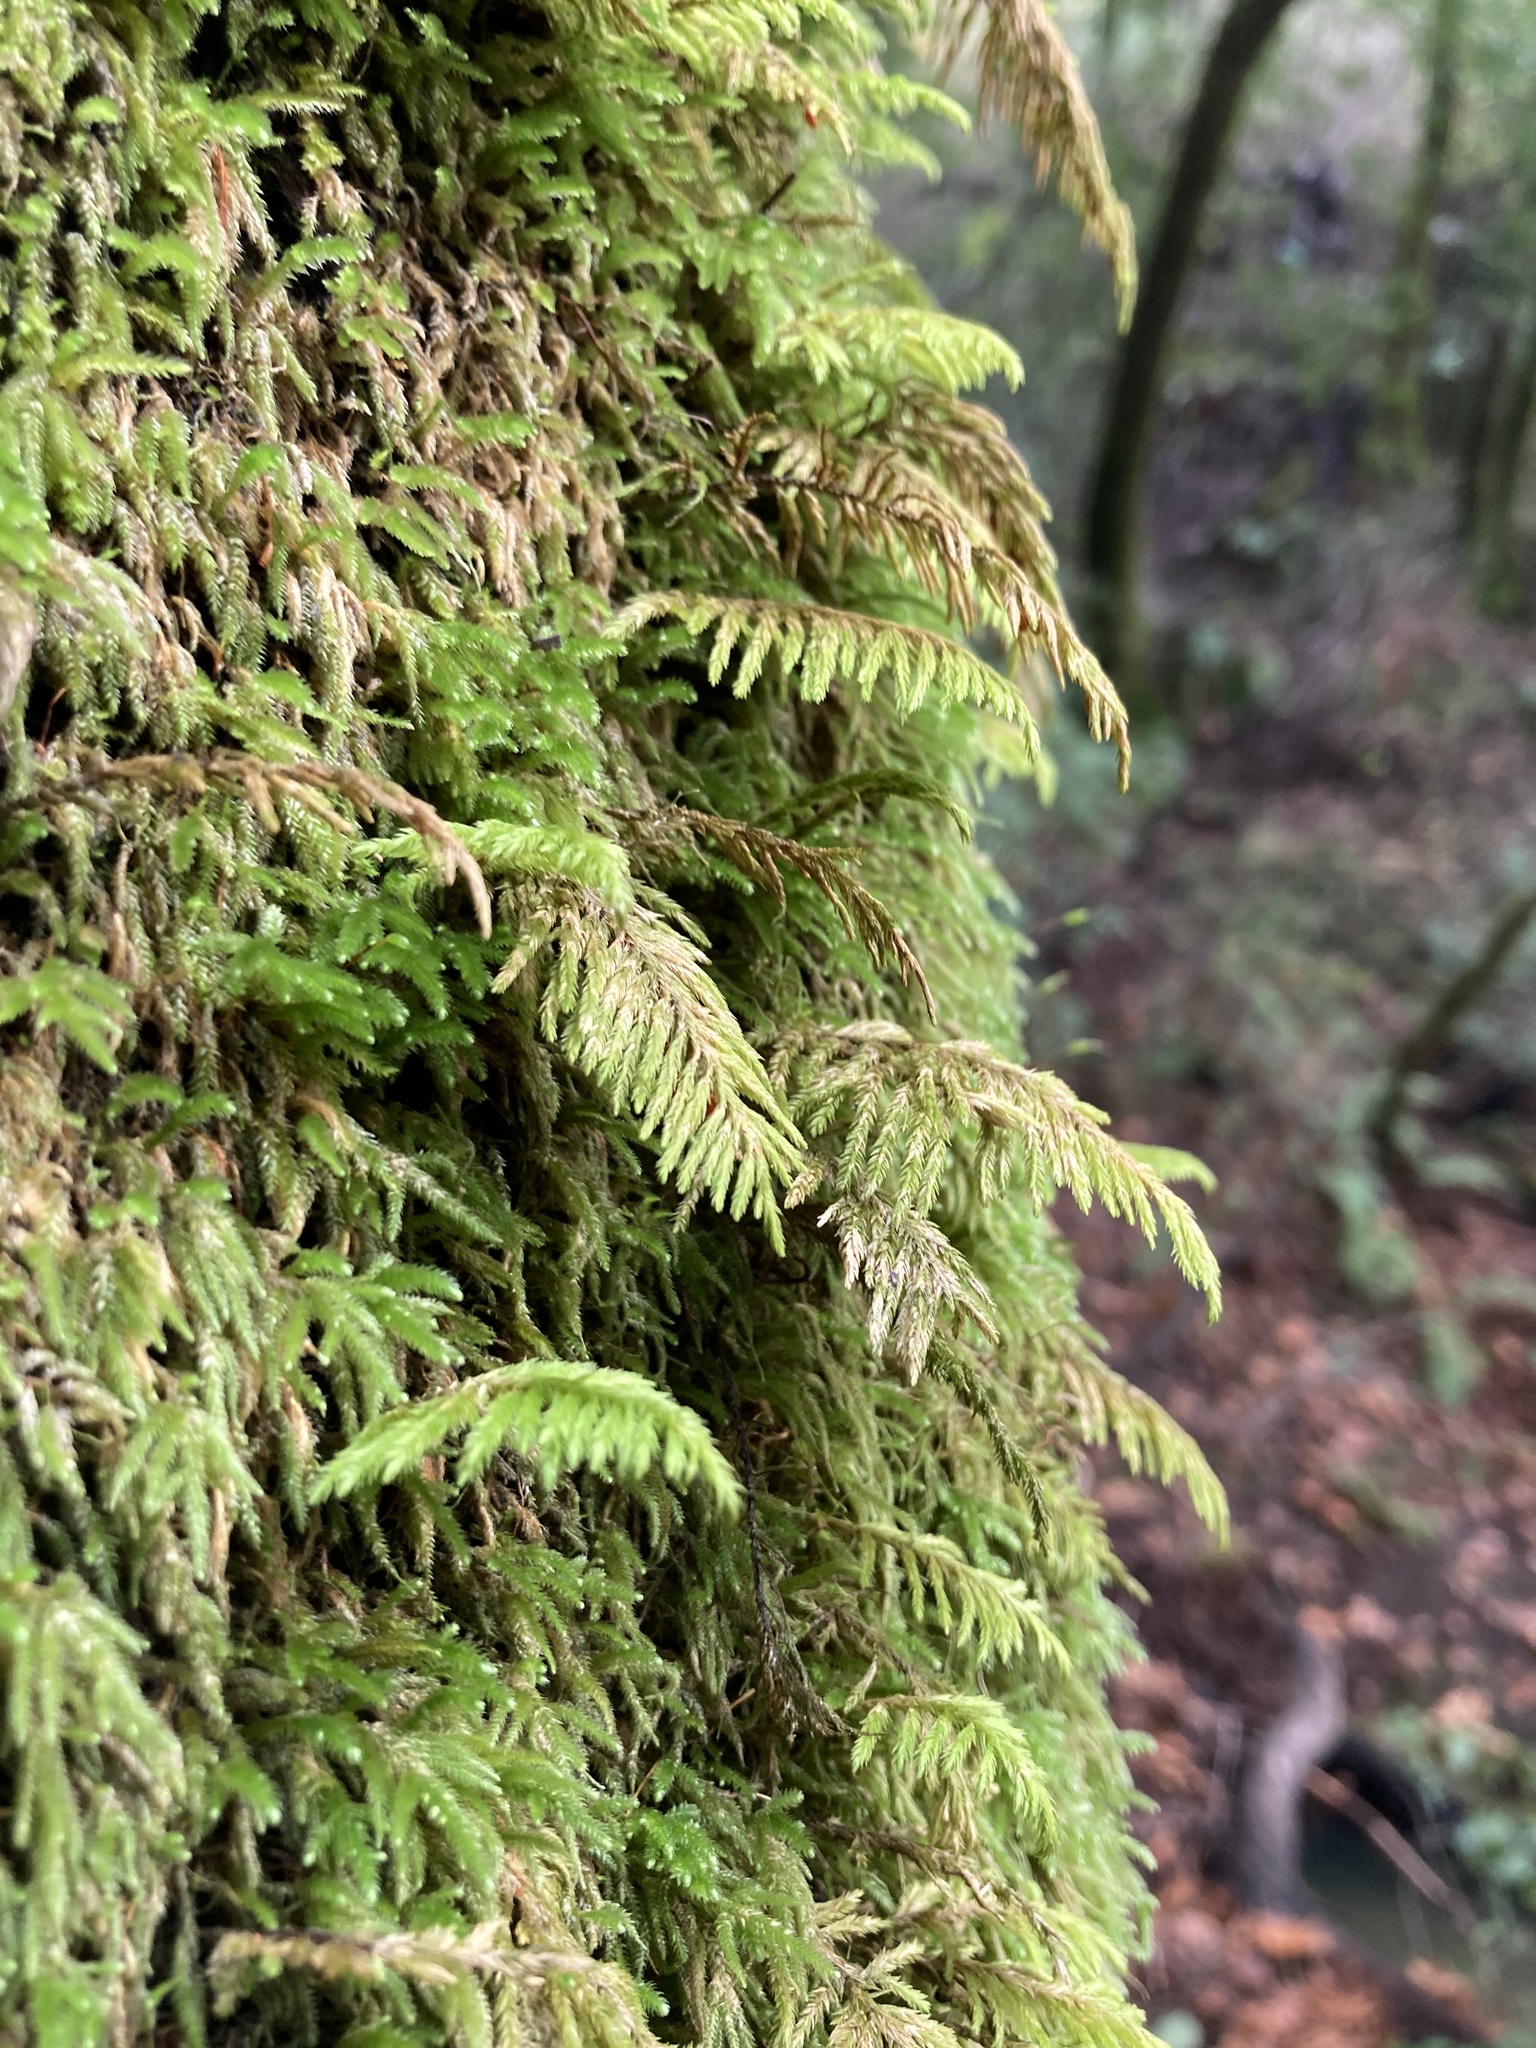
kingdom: Plantae
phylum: Bryophyta
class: Bryopsida
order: Hypnales
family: Cryphaeaceae
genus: Dendroalsia
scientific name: Dendroalsia abietina
